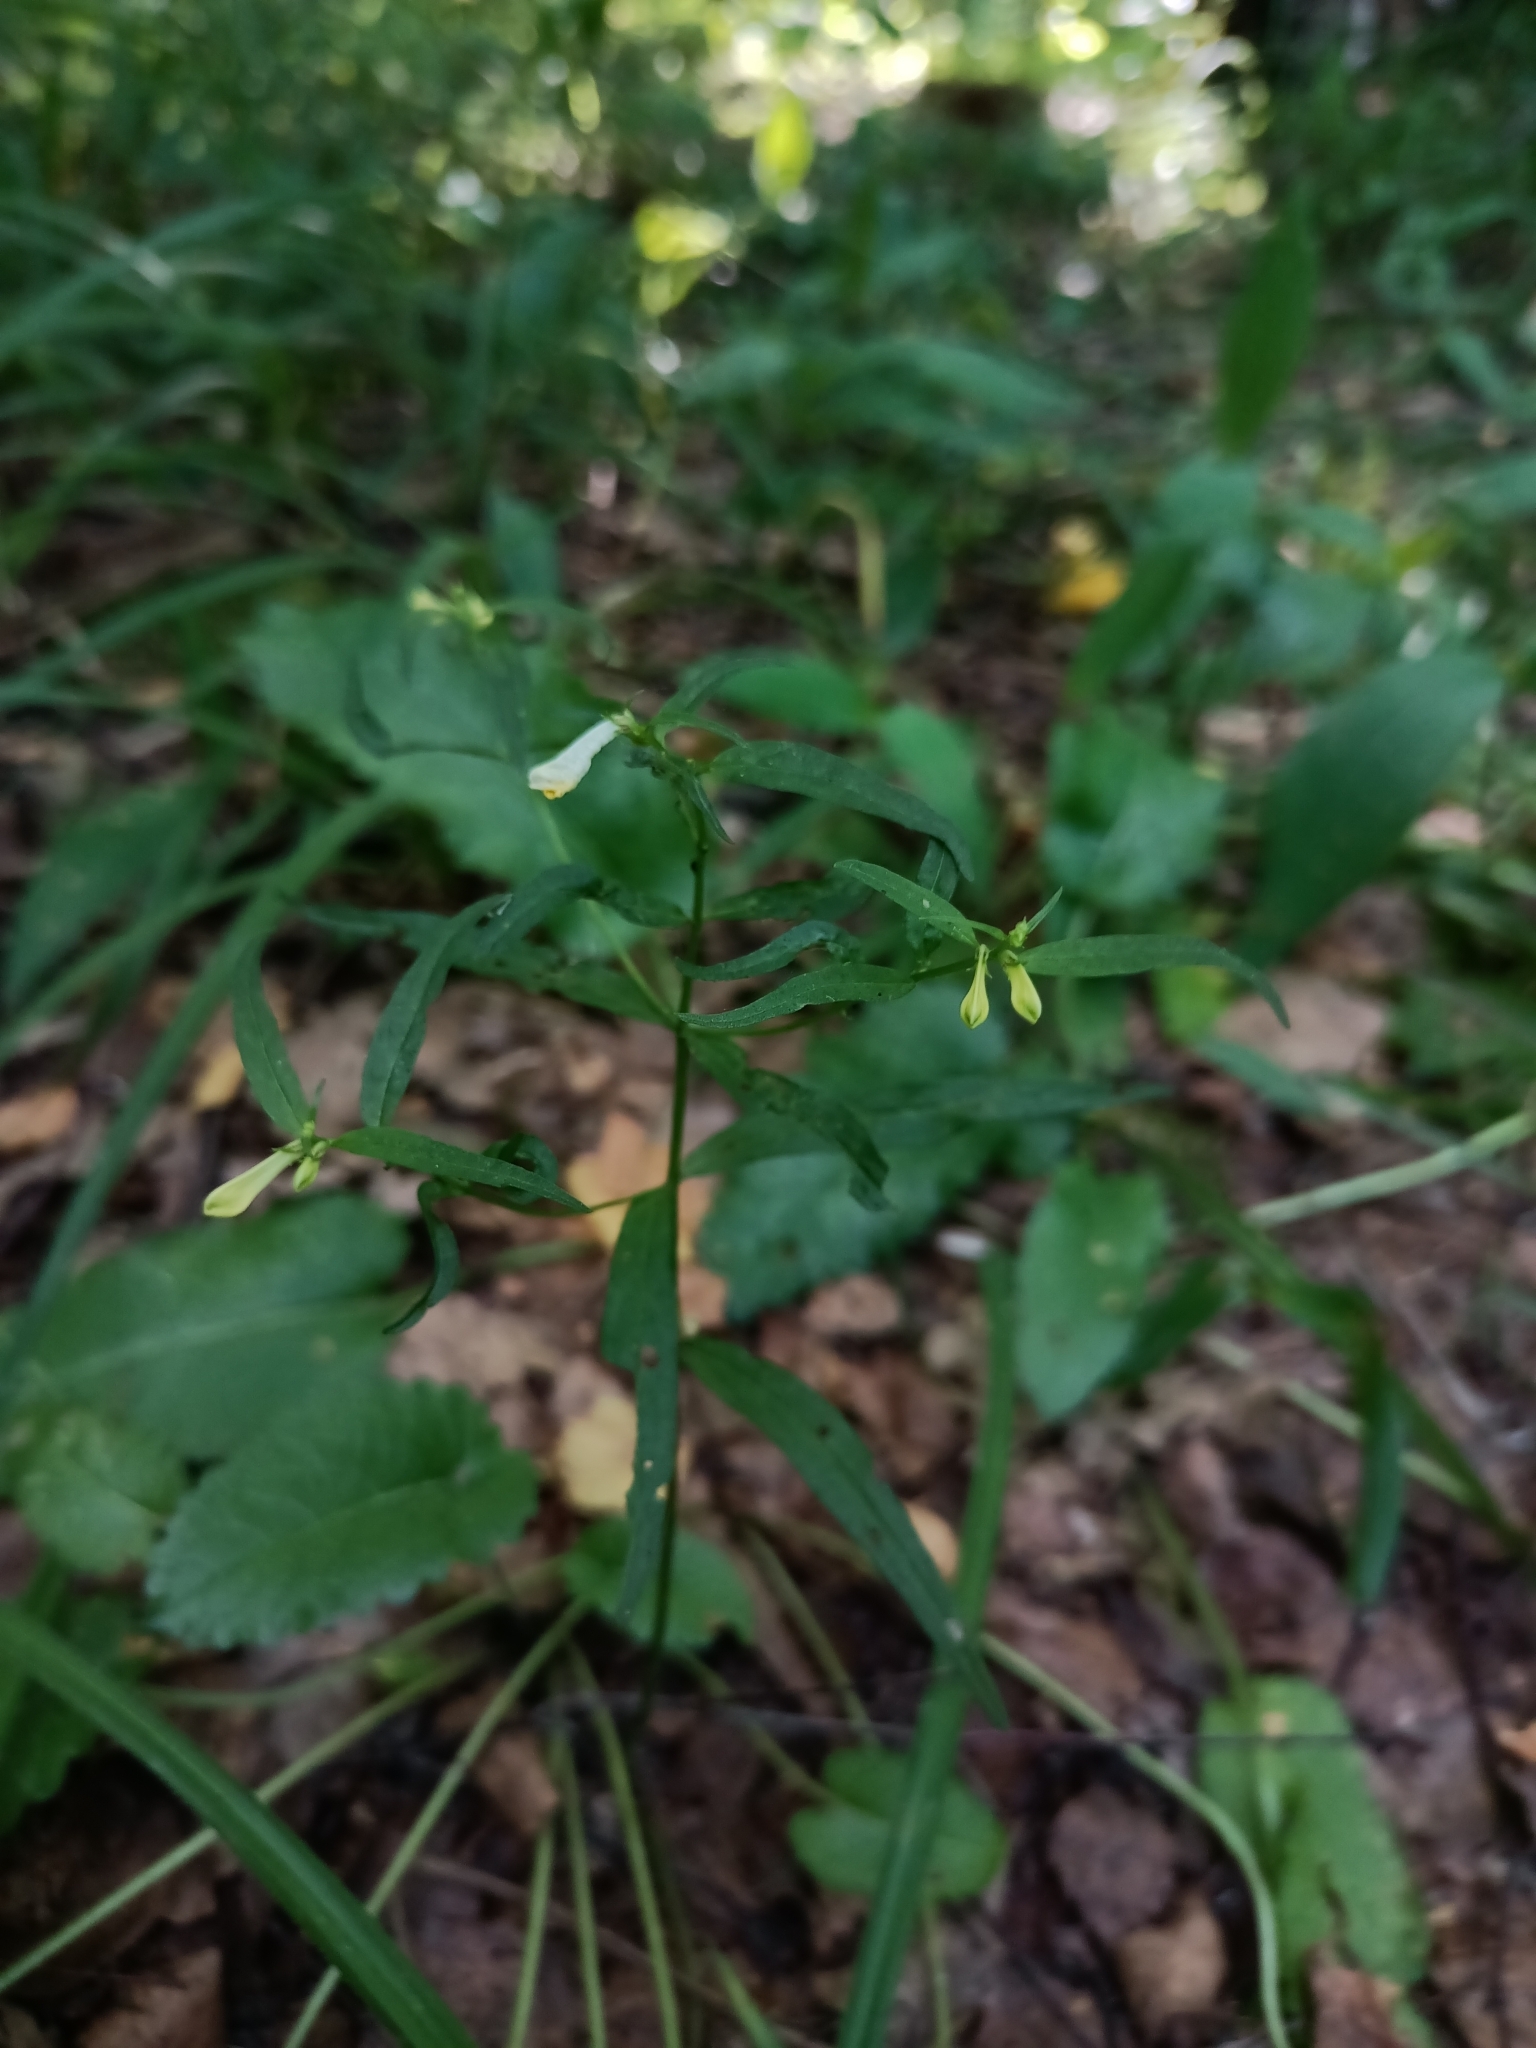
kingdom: Plantae
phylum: Tracheophyta
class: Magnoliopsida
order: Lamiales
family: Orobanchaceae
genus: Melampyrum
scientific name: Melampyrum pratense
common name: Common cow-wheat
